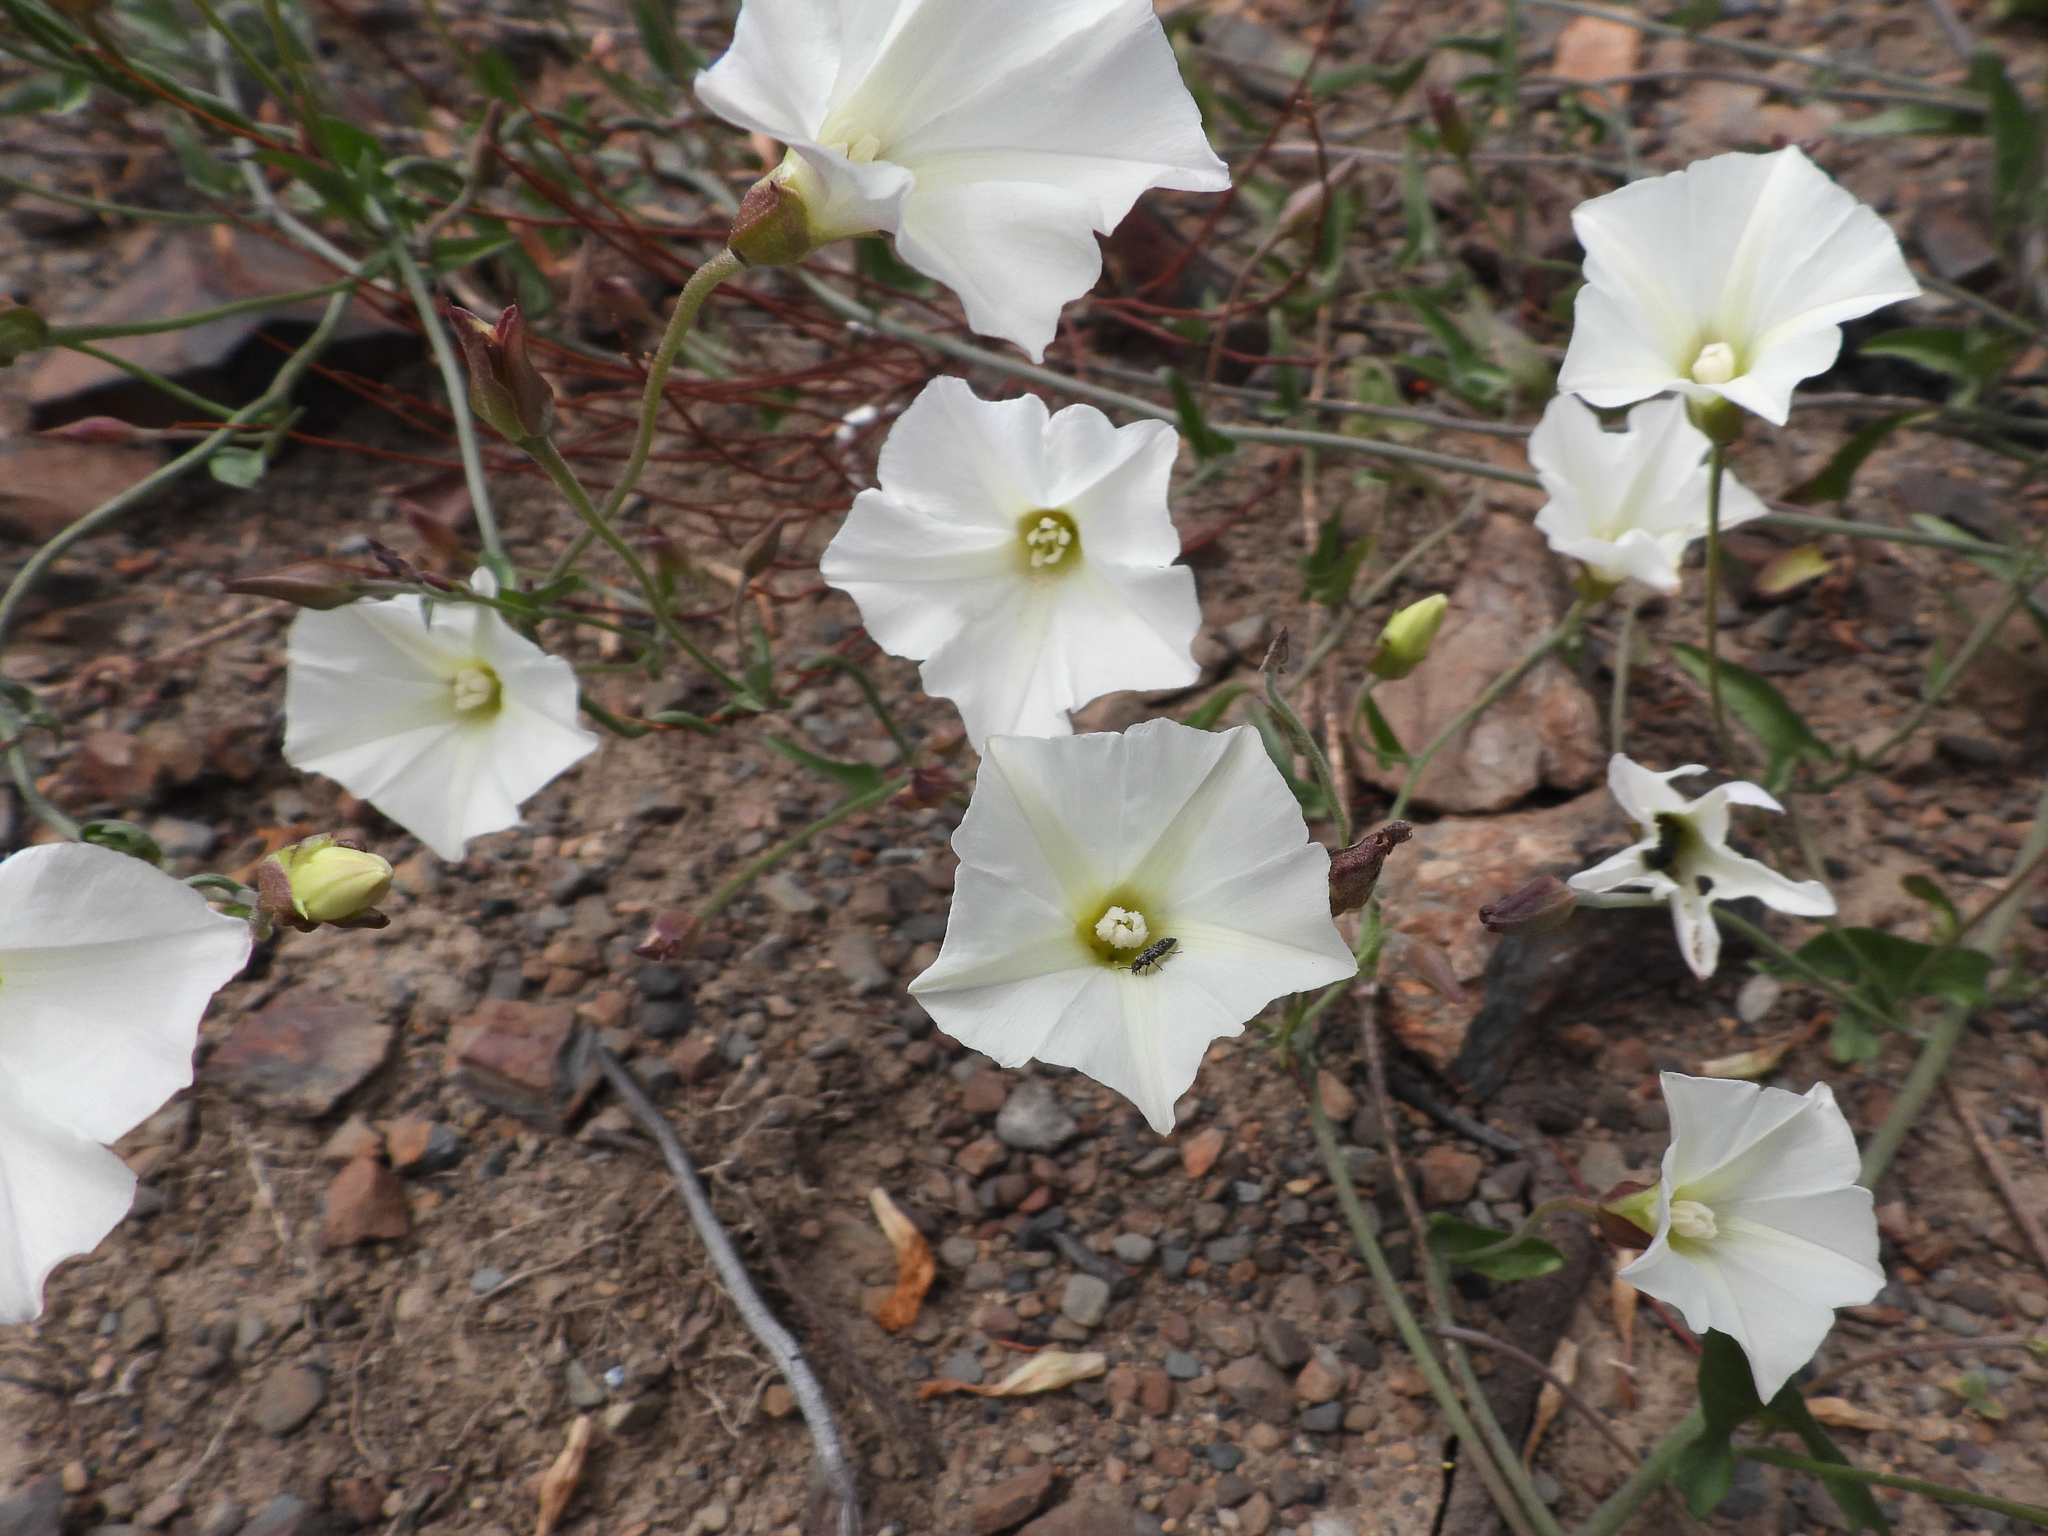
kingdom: Plantae
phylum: Tracheophyta
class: Magnoliopsida
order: Solanales
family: Convolvulaceae
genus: Calystegia
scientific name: Calystegia macrostegia
